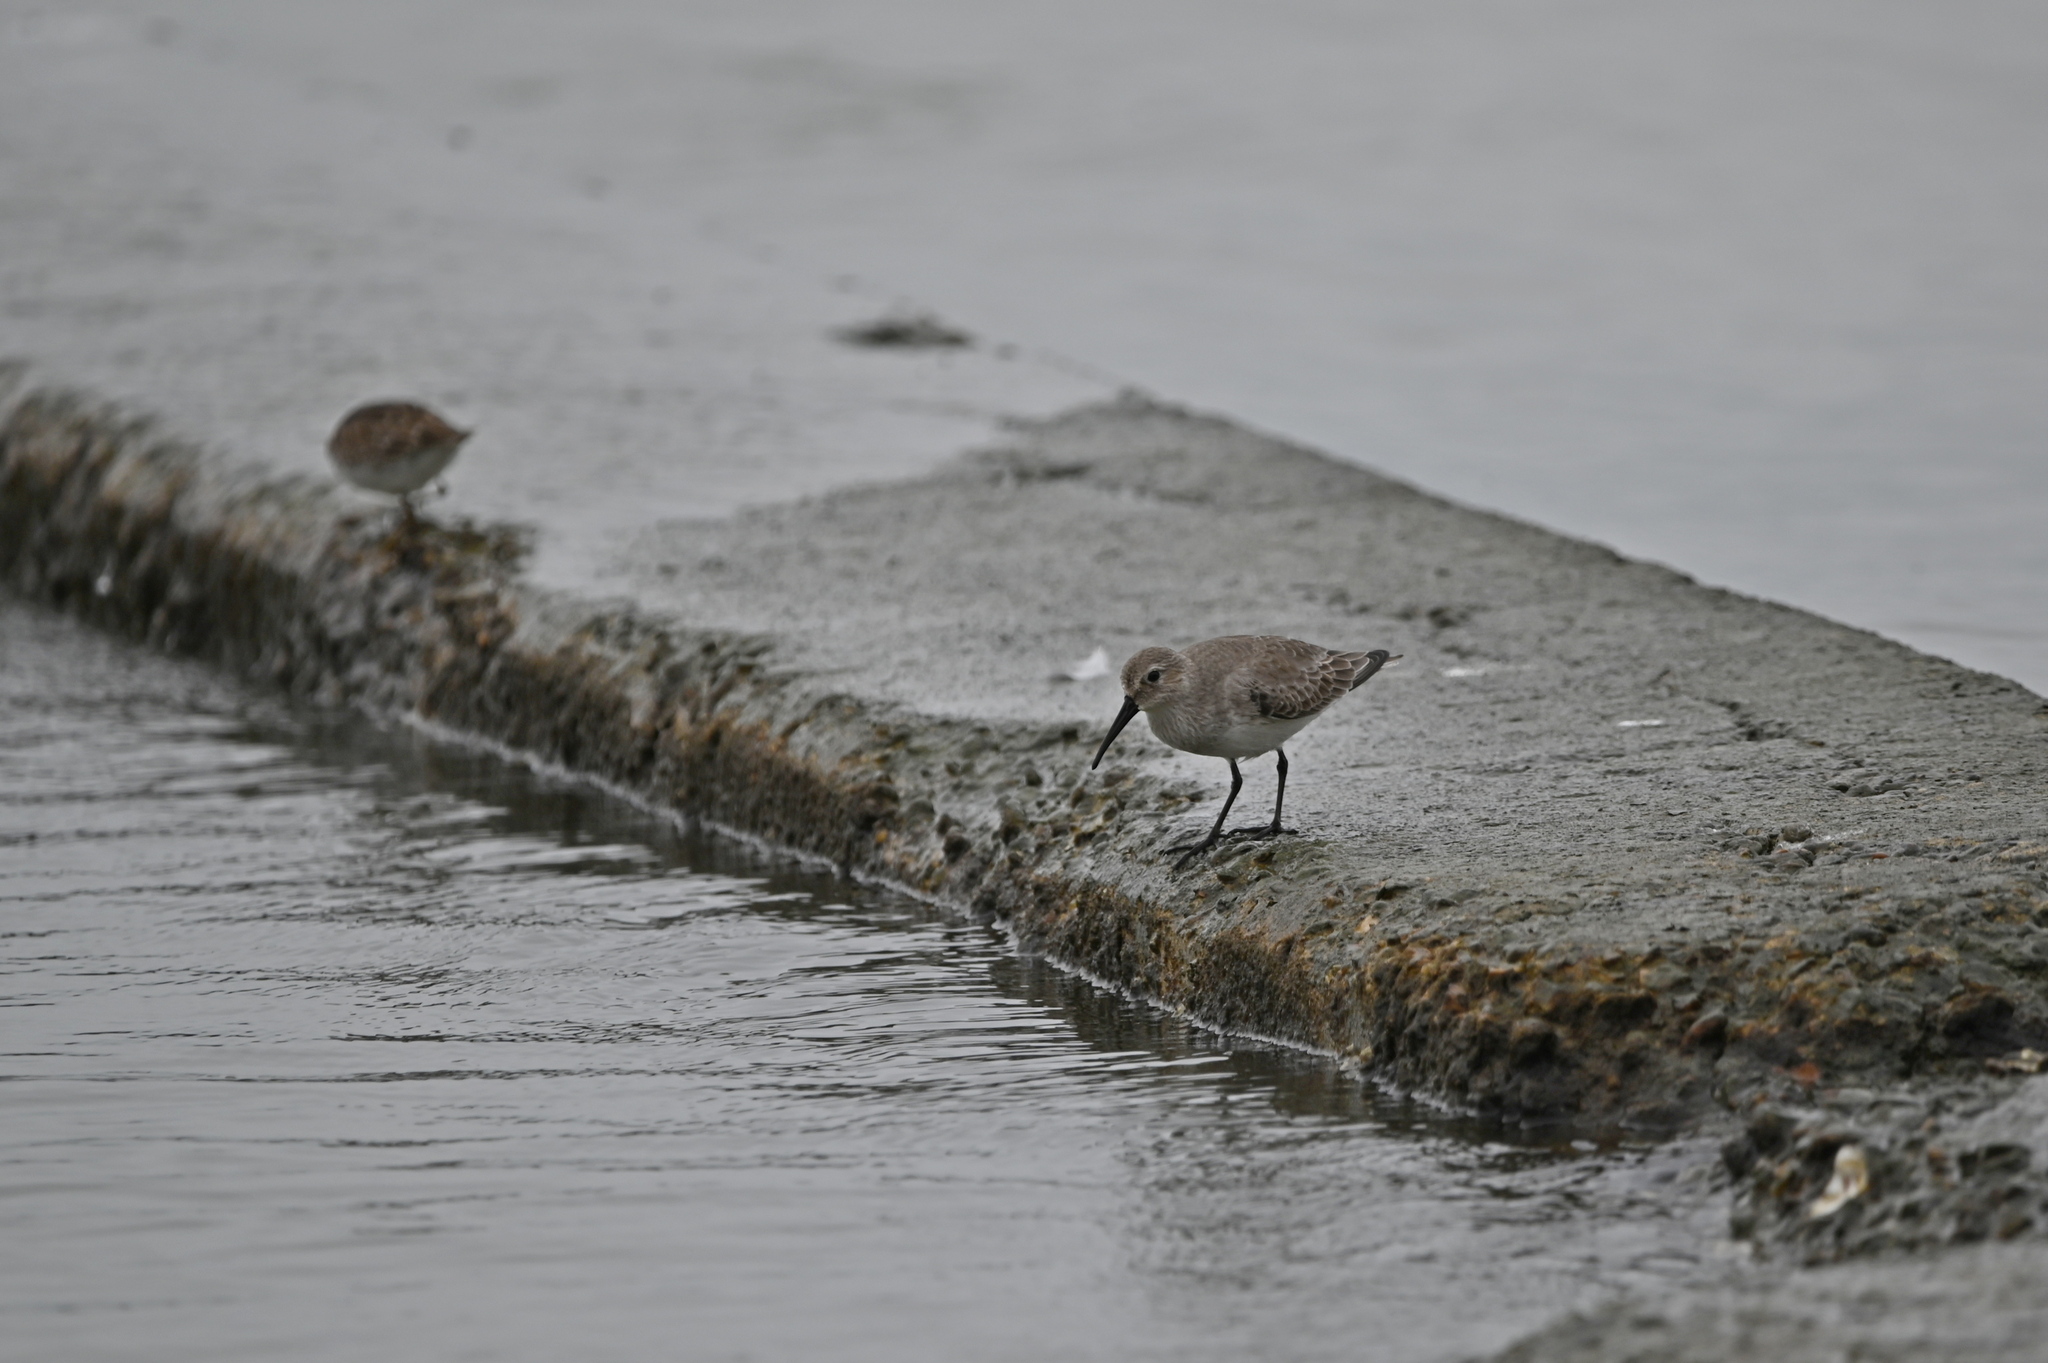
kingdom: Animalia
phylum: Chordata
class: Aves
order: Charadriiformes
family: Scolopacidae
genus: Calidris
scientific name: Calidris alpina
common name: Dunlin
